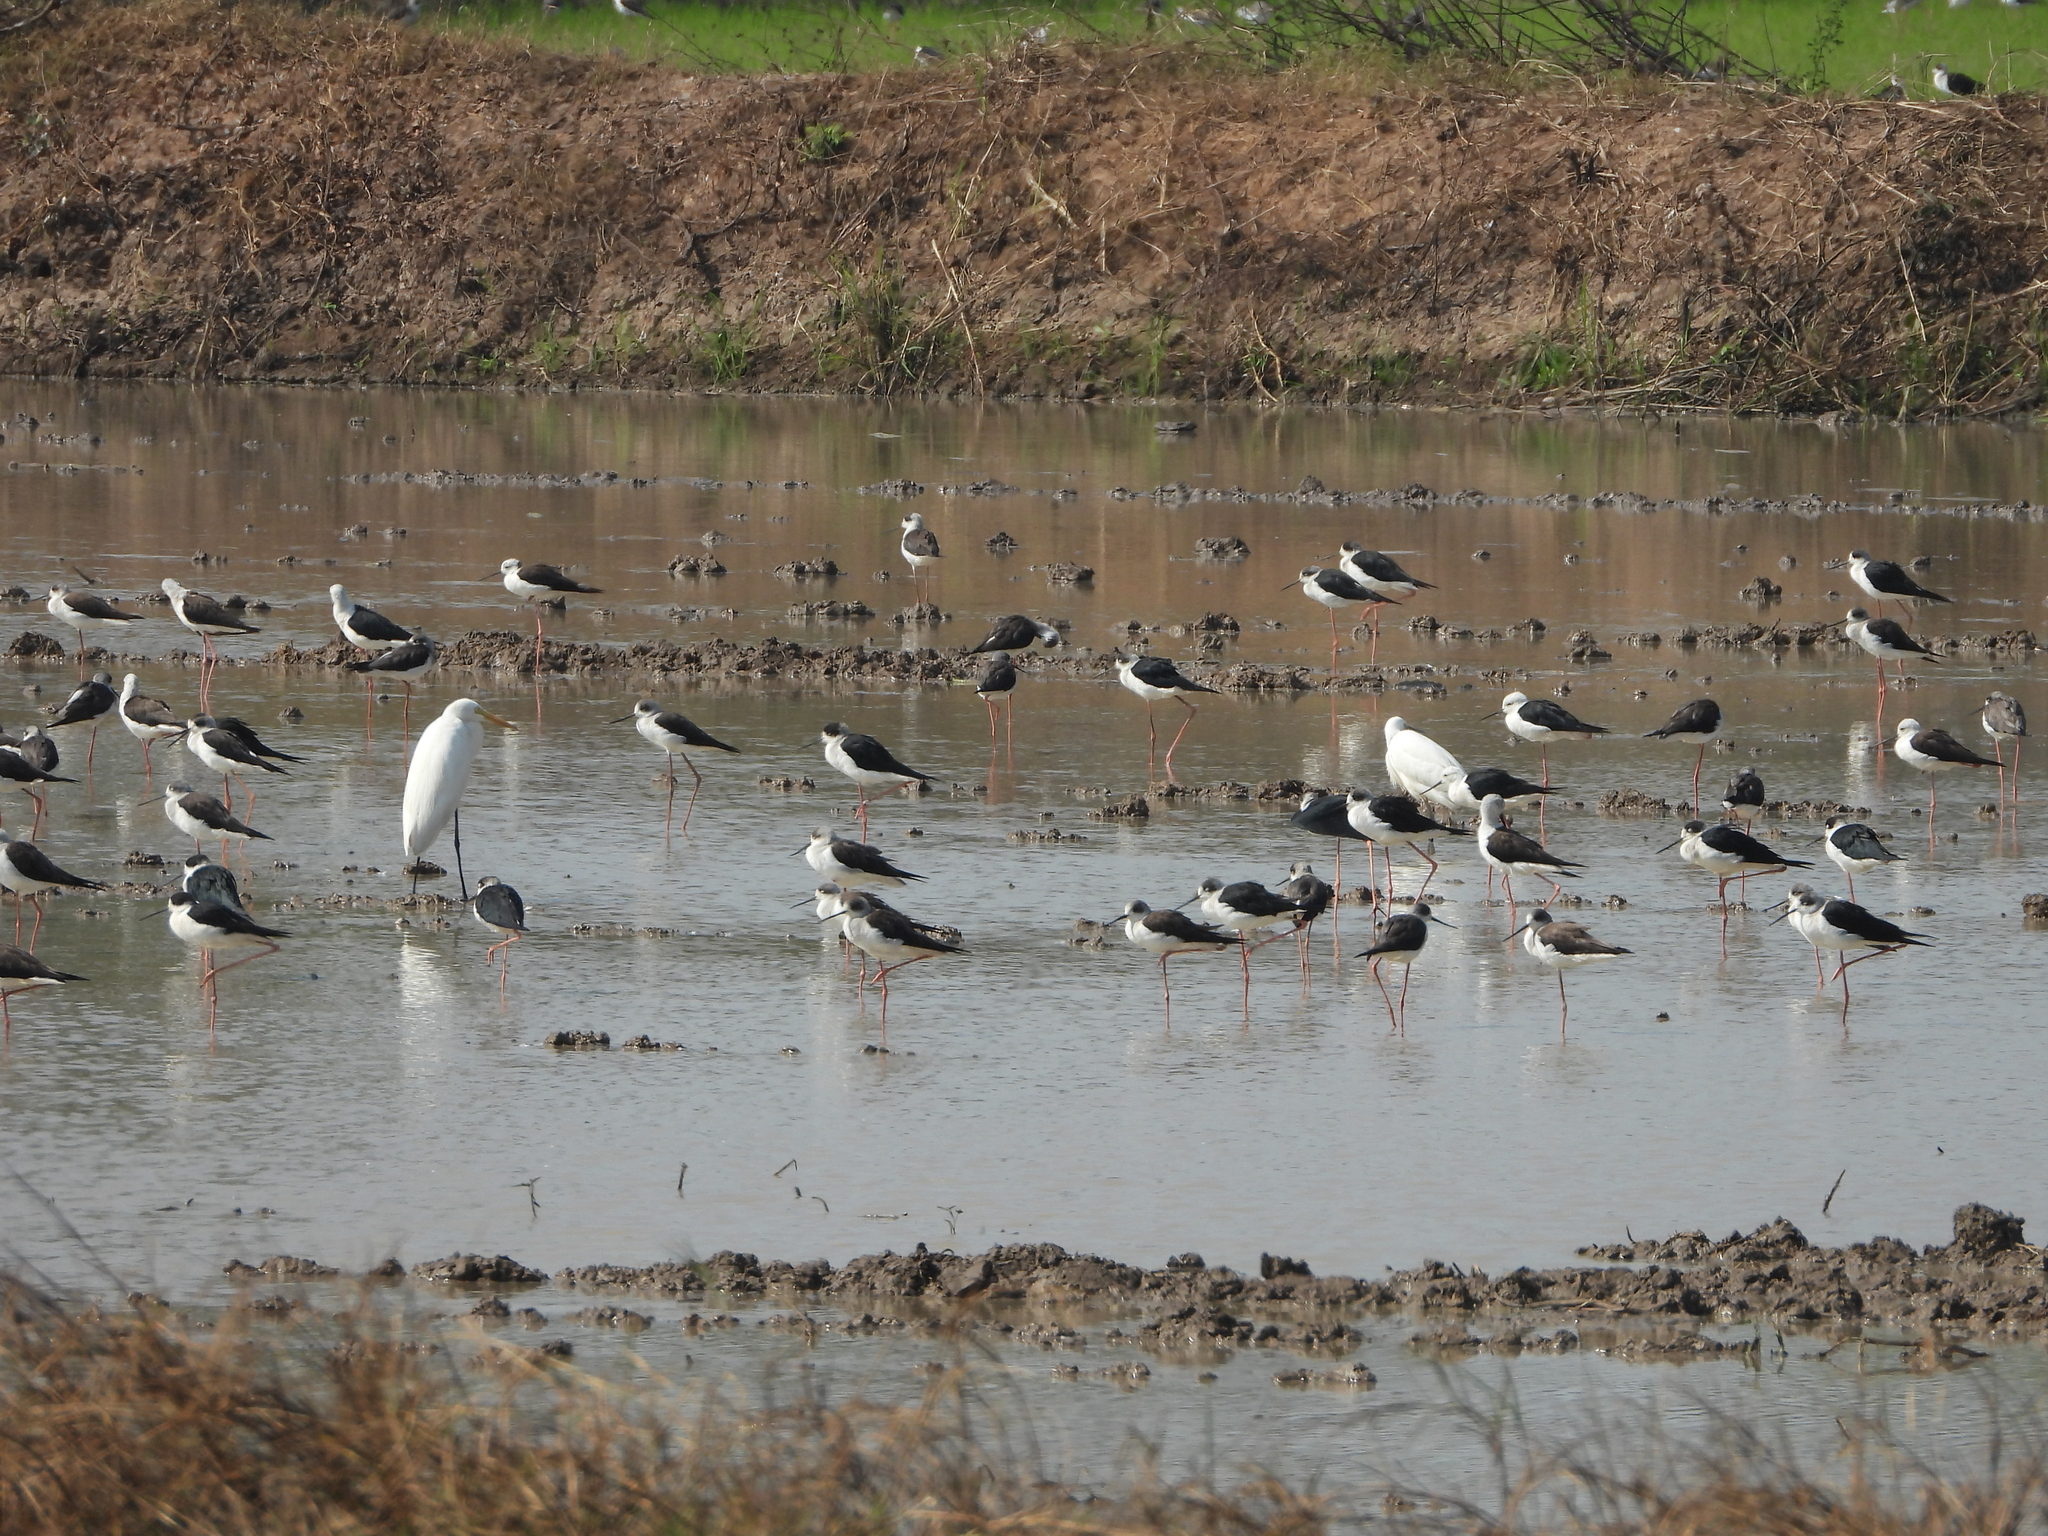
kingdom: Animalia
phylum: Chordata
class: Aves
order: Charadriiformes
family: Recurvirostridae
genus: Himantopus
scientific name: Himantopus himantopus
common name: Black-winged stilt
